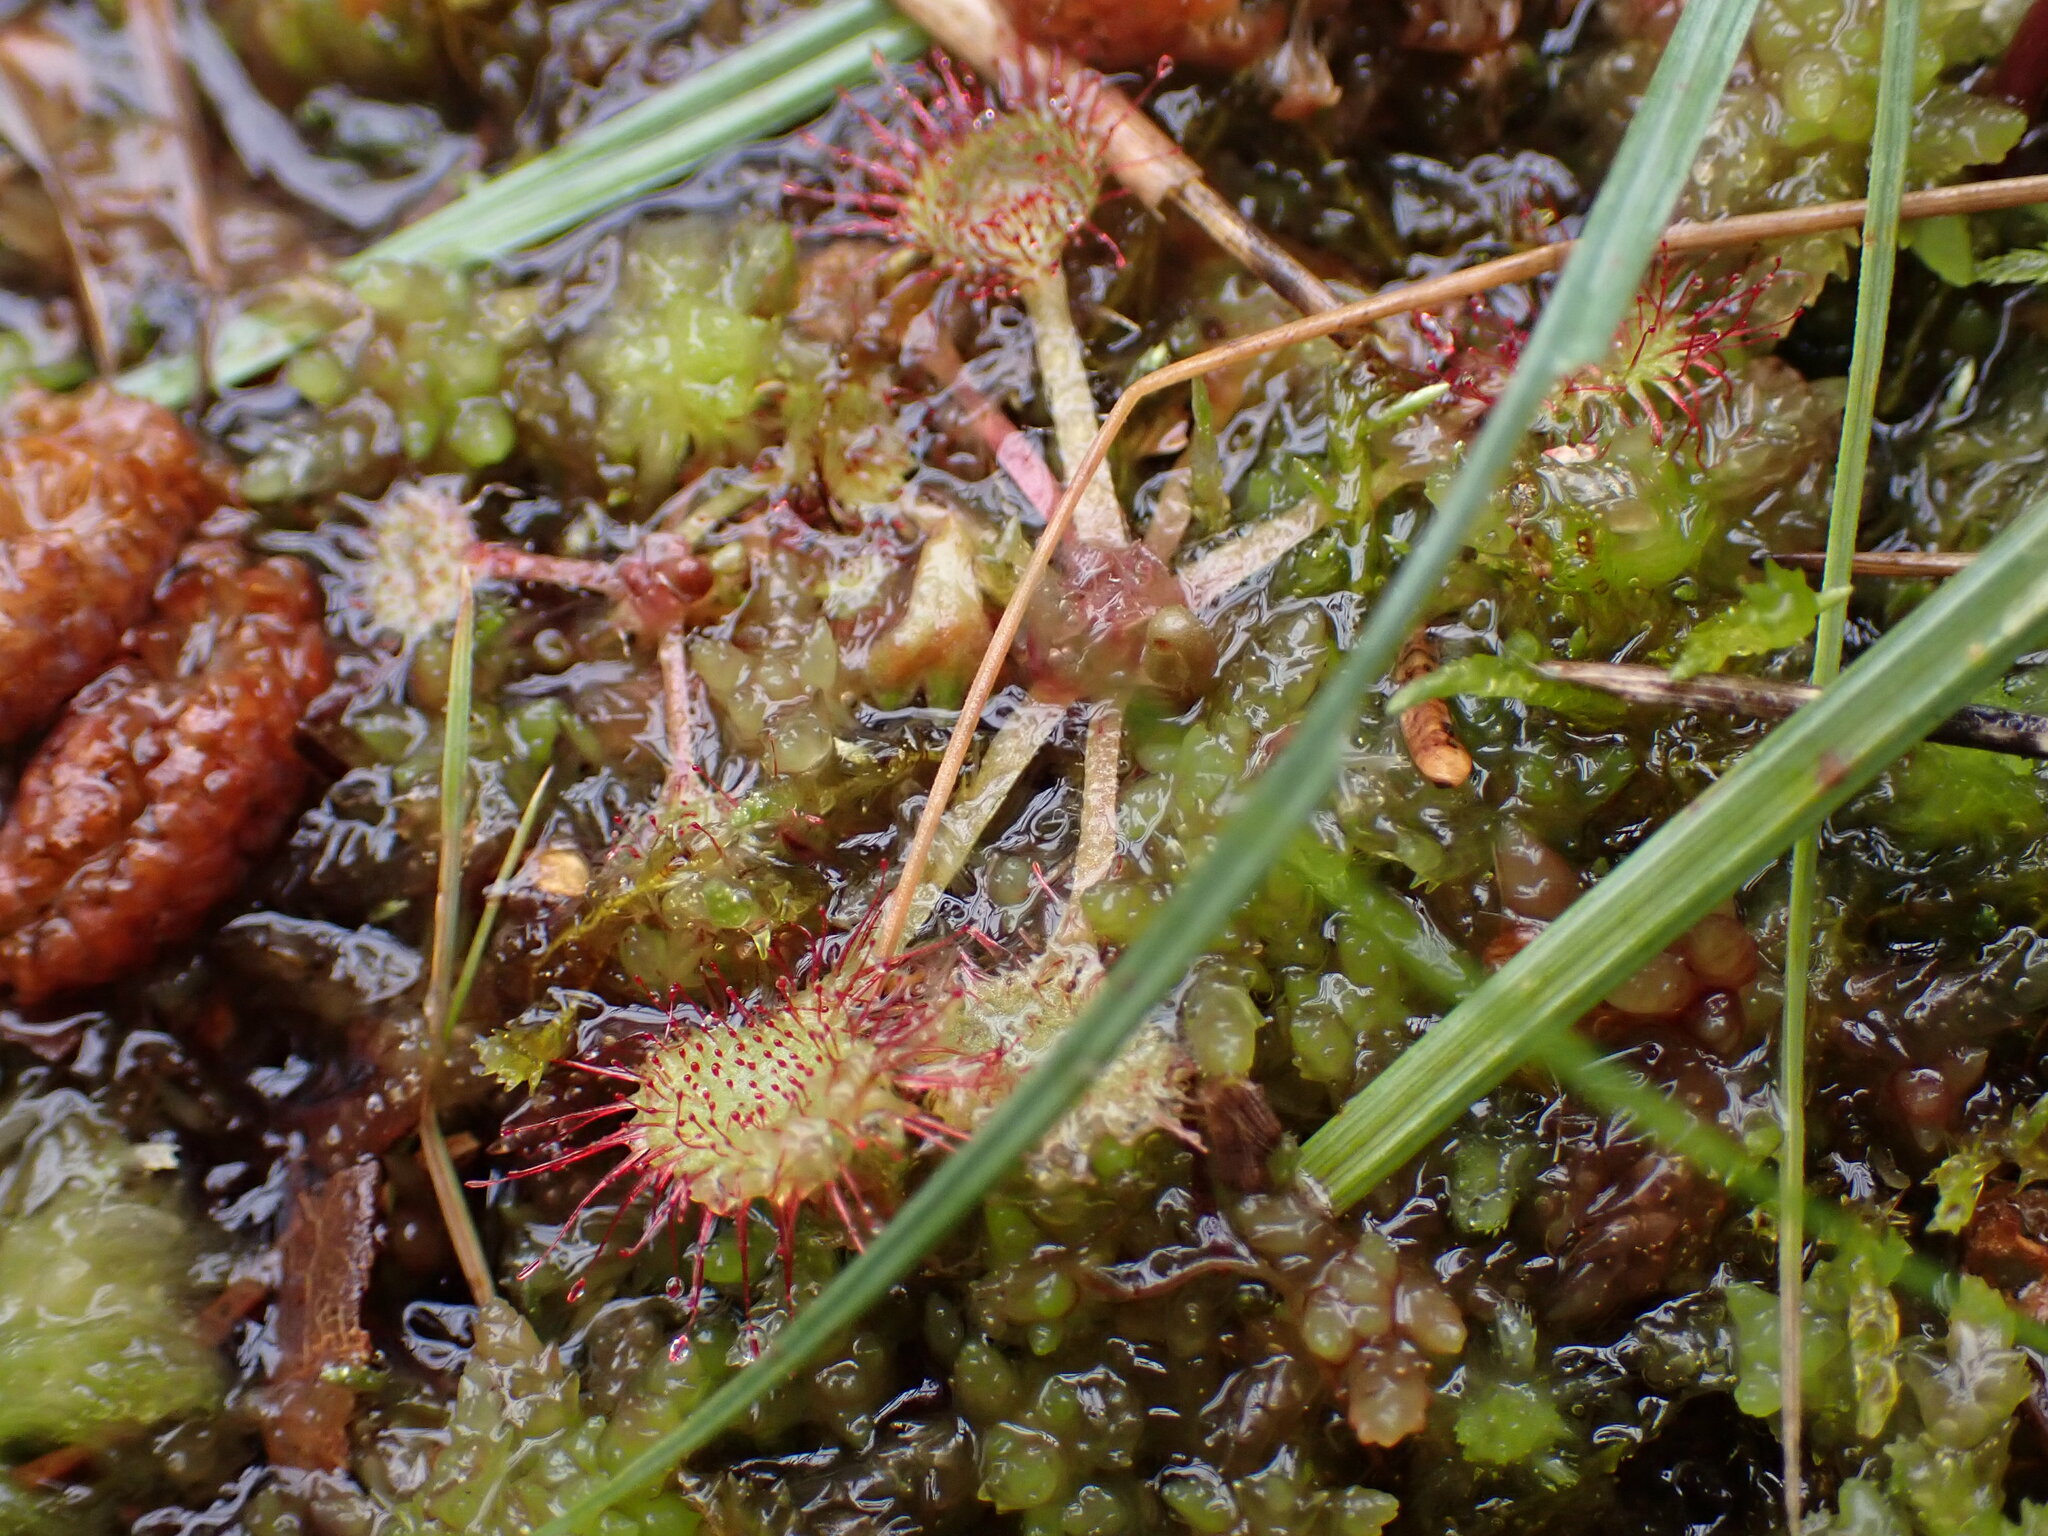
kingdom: Plantae
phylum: Tracheophyta
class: Magnoliopsida
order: Caryophyllales
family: Droseraceae
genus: Drosera
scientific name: Drosera rotundifolia
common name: Round-leaved sundew
